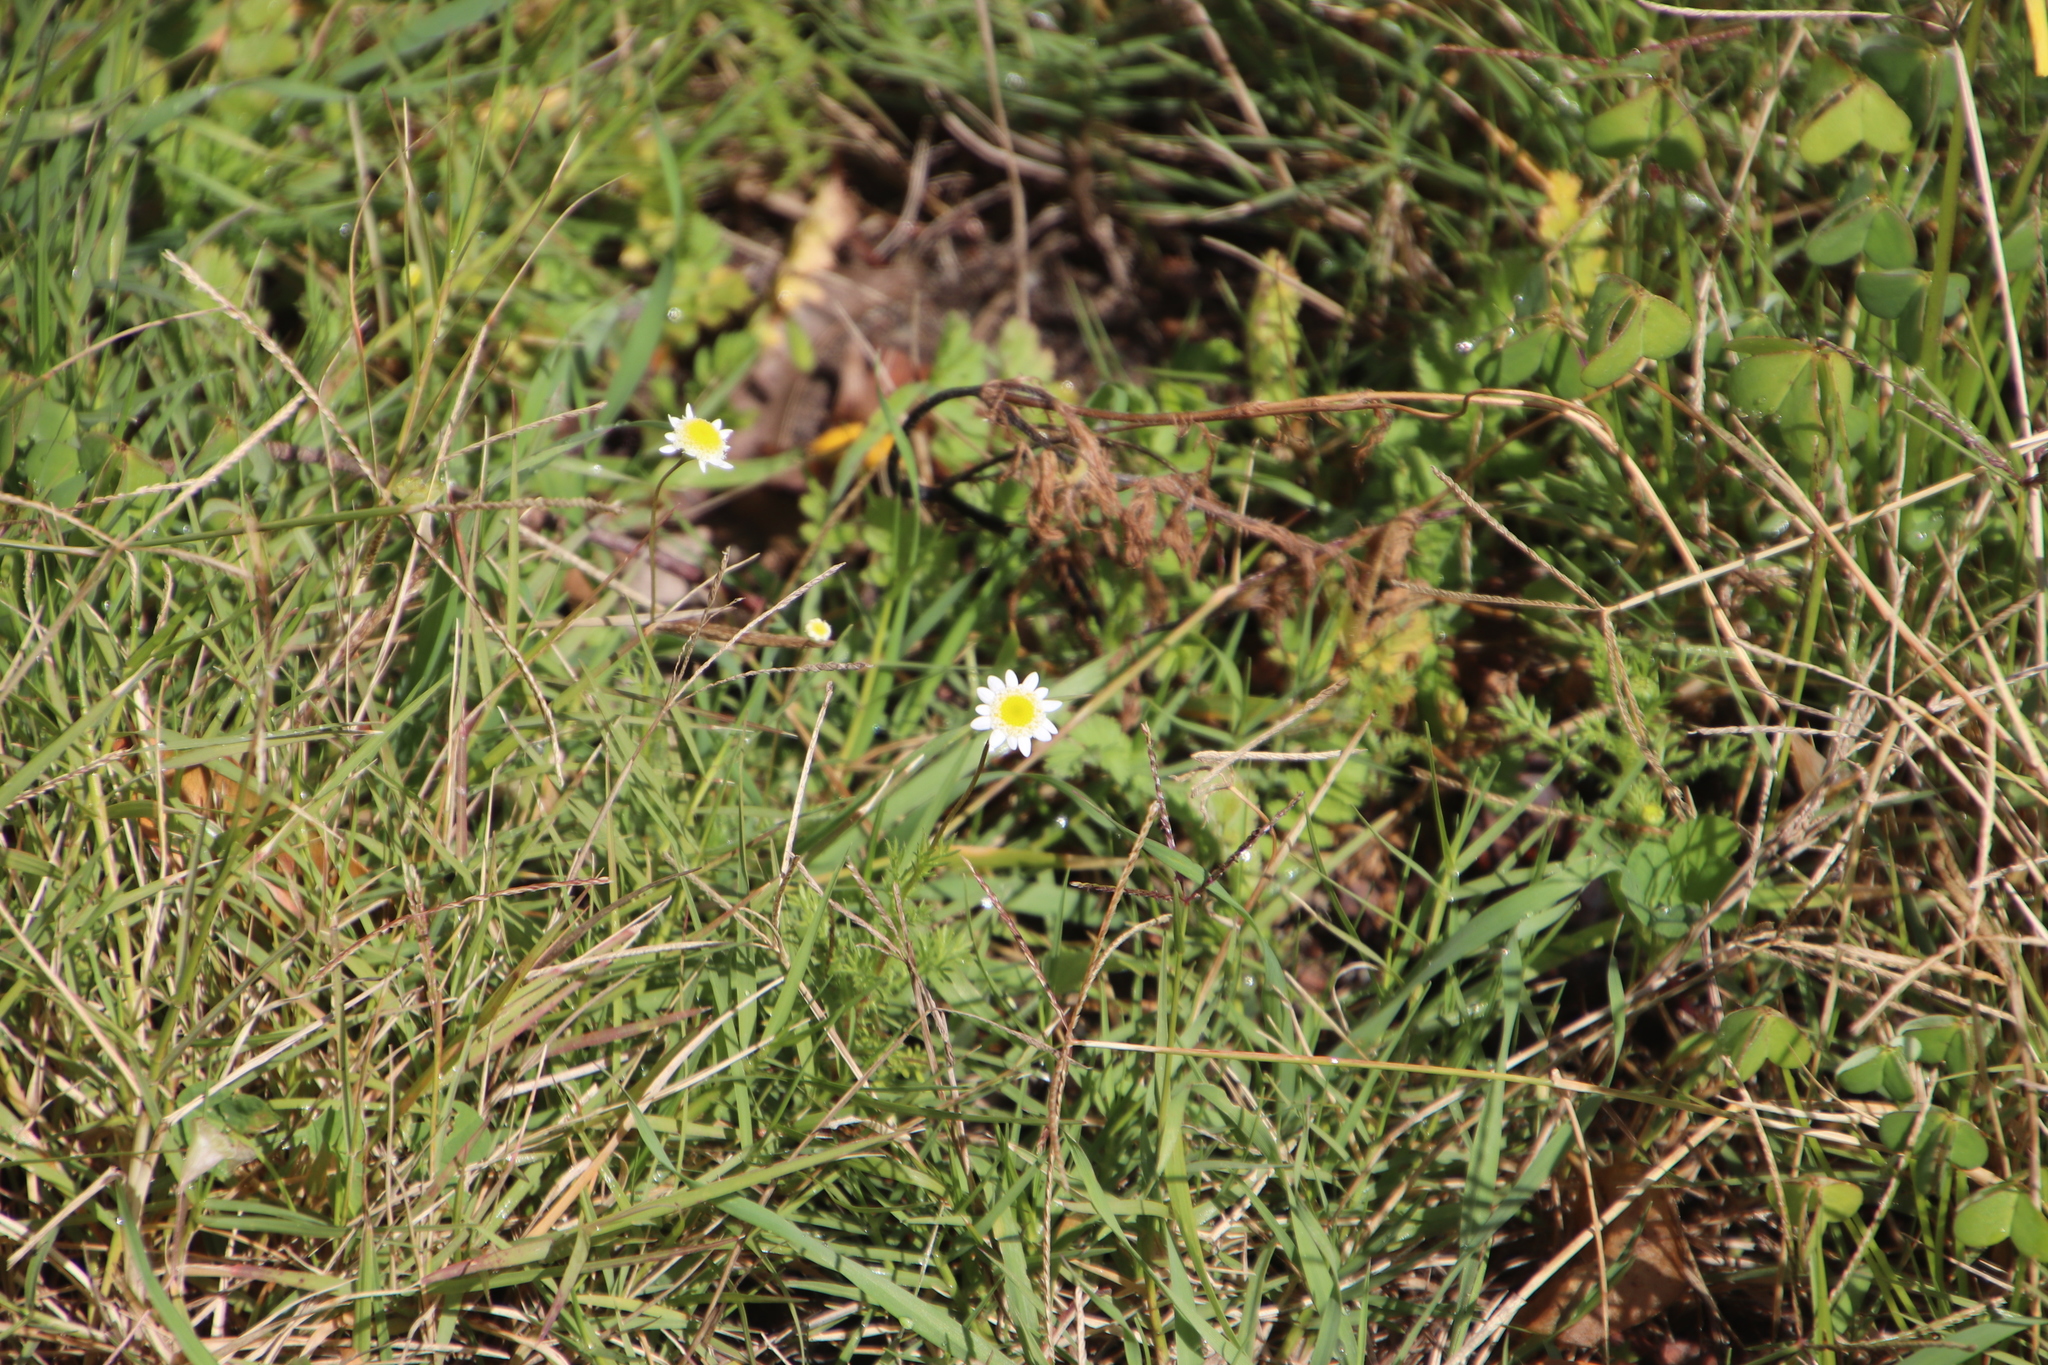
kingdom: Plantae
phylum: Tracheophyta
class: Magnoliopsida
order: Asterales
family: Asteraceae
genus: Cotula
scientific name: Cotula turbinata
